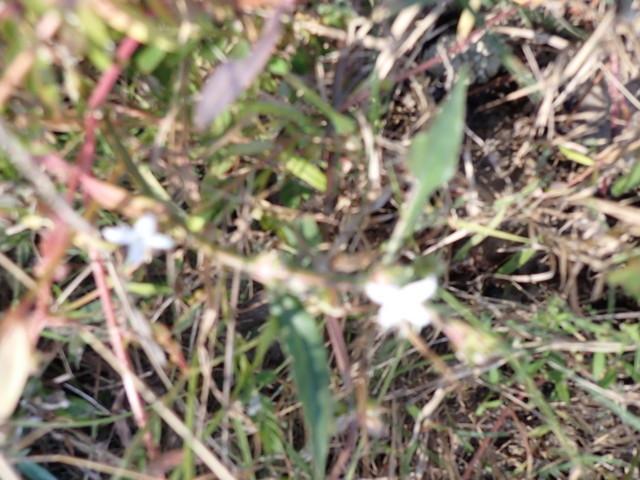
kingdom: Plantae
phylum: Tracheophyta
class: Magnoliopsida
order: Gentianales
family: Rubiaceae
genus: Diodia
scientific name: Diodia virginiana
